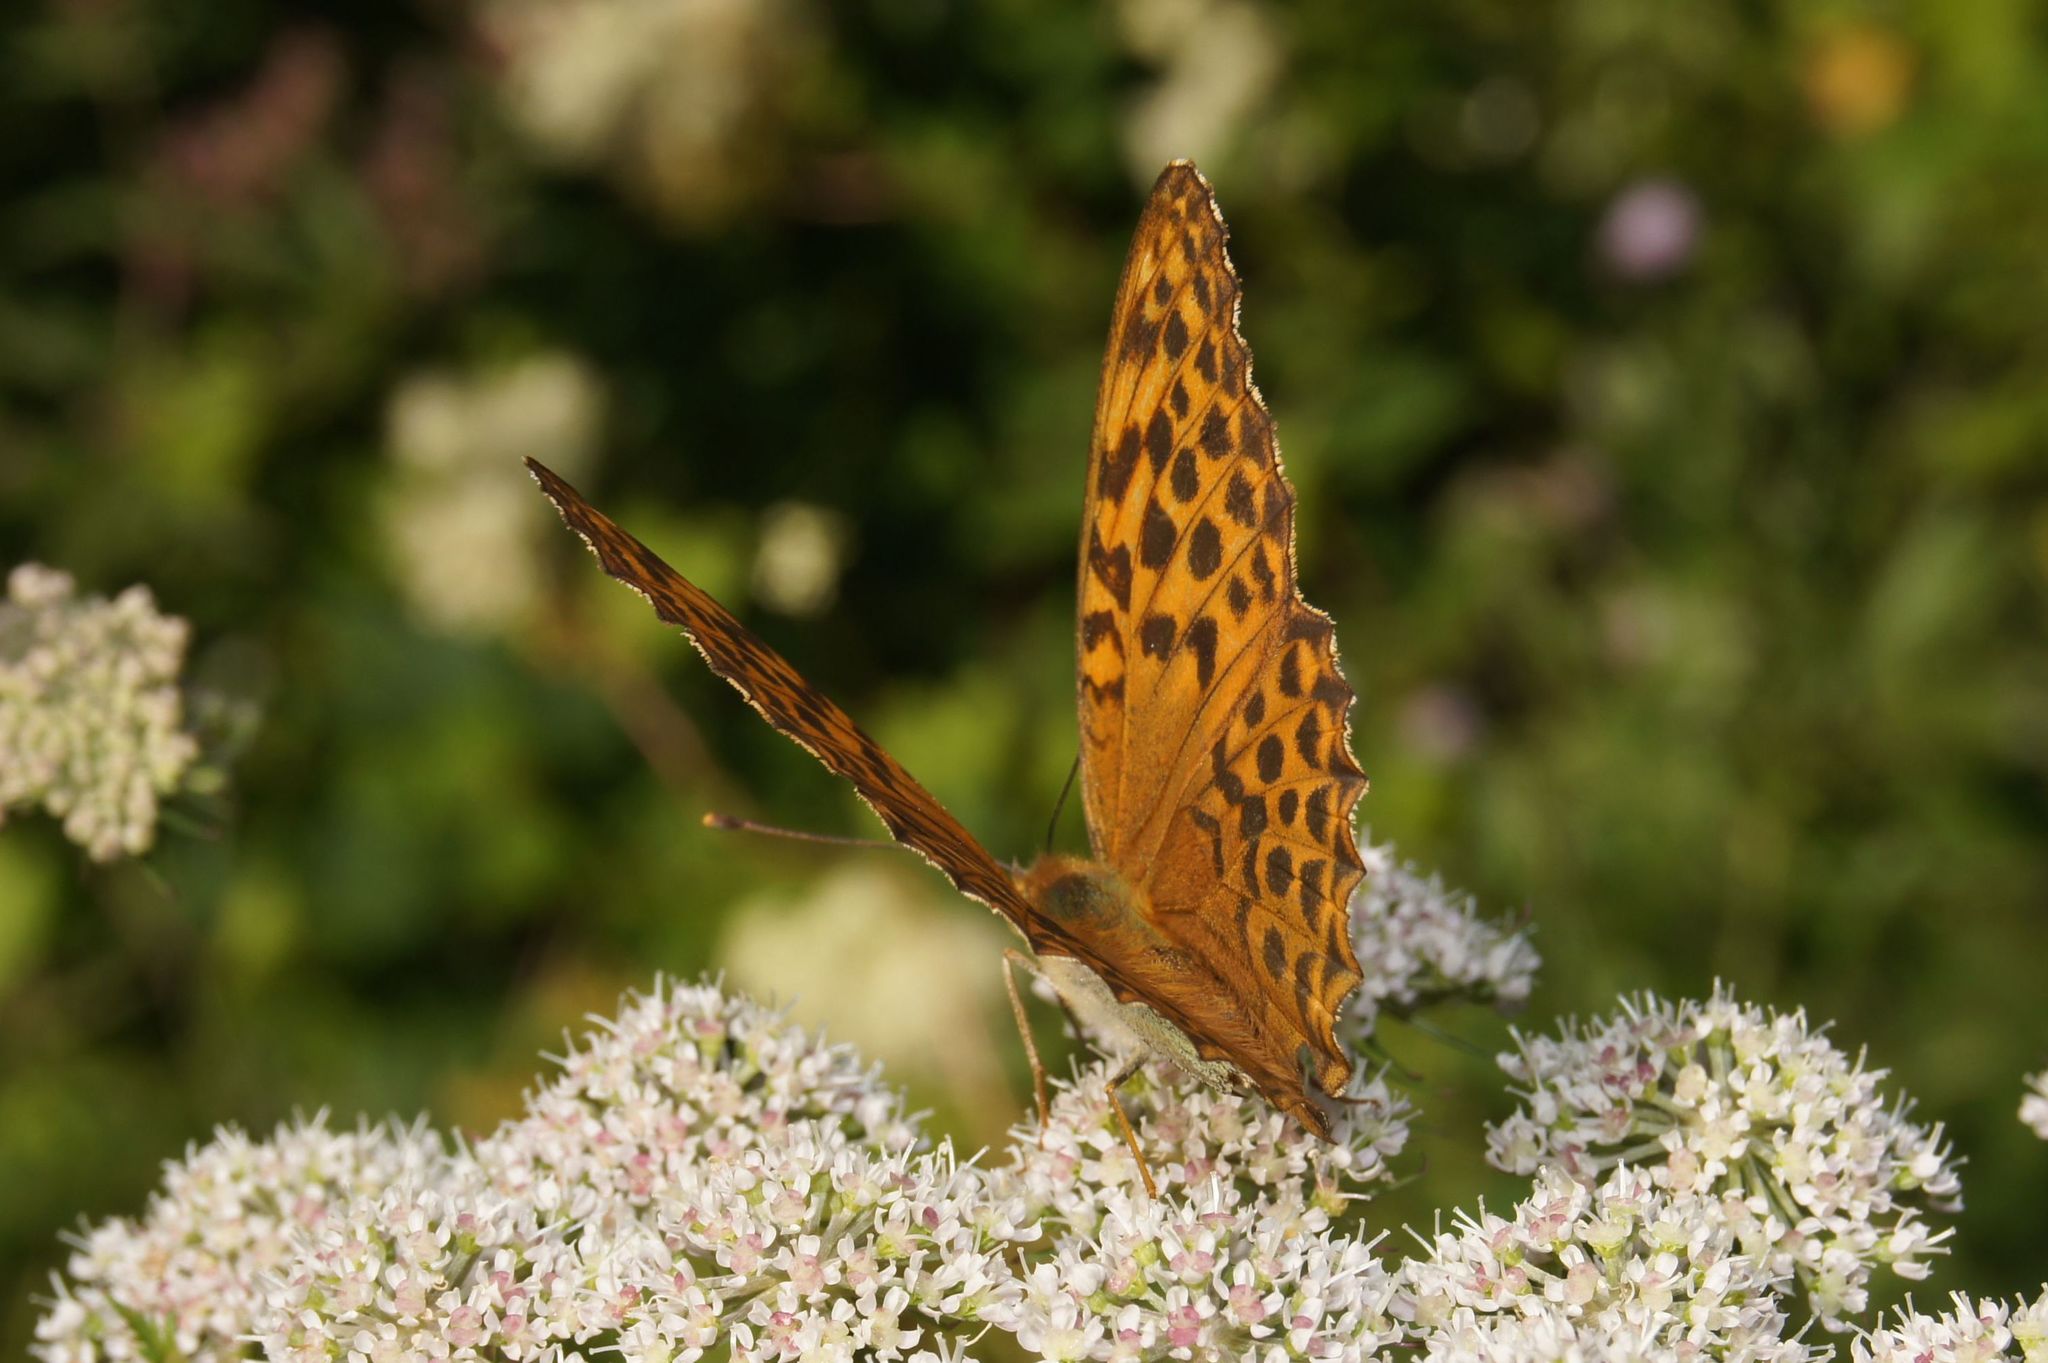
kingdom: Animalia
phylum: Arthropoda
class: Insecta
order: Lepidoptera
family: Nymphalidae
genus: Argynnis
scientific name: Argynnis paphia
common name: Silver-washed fritillary
